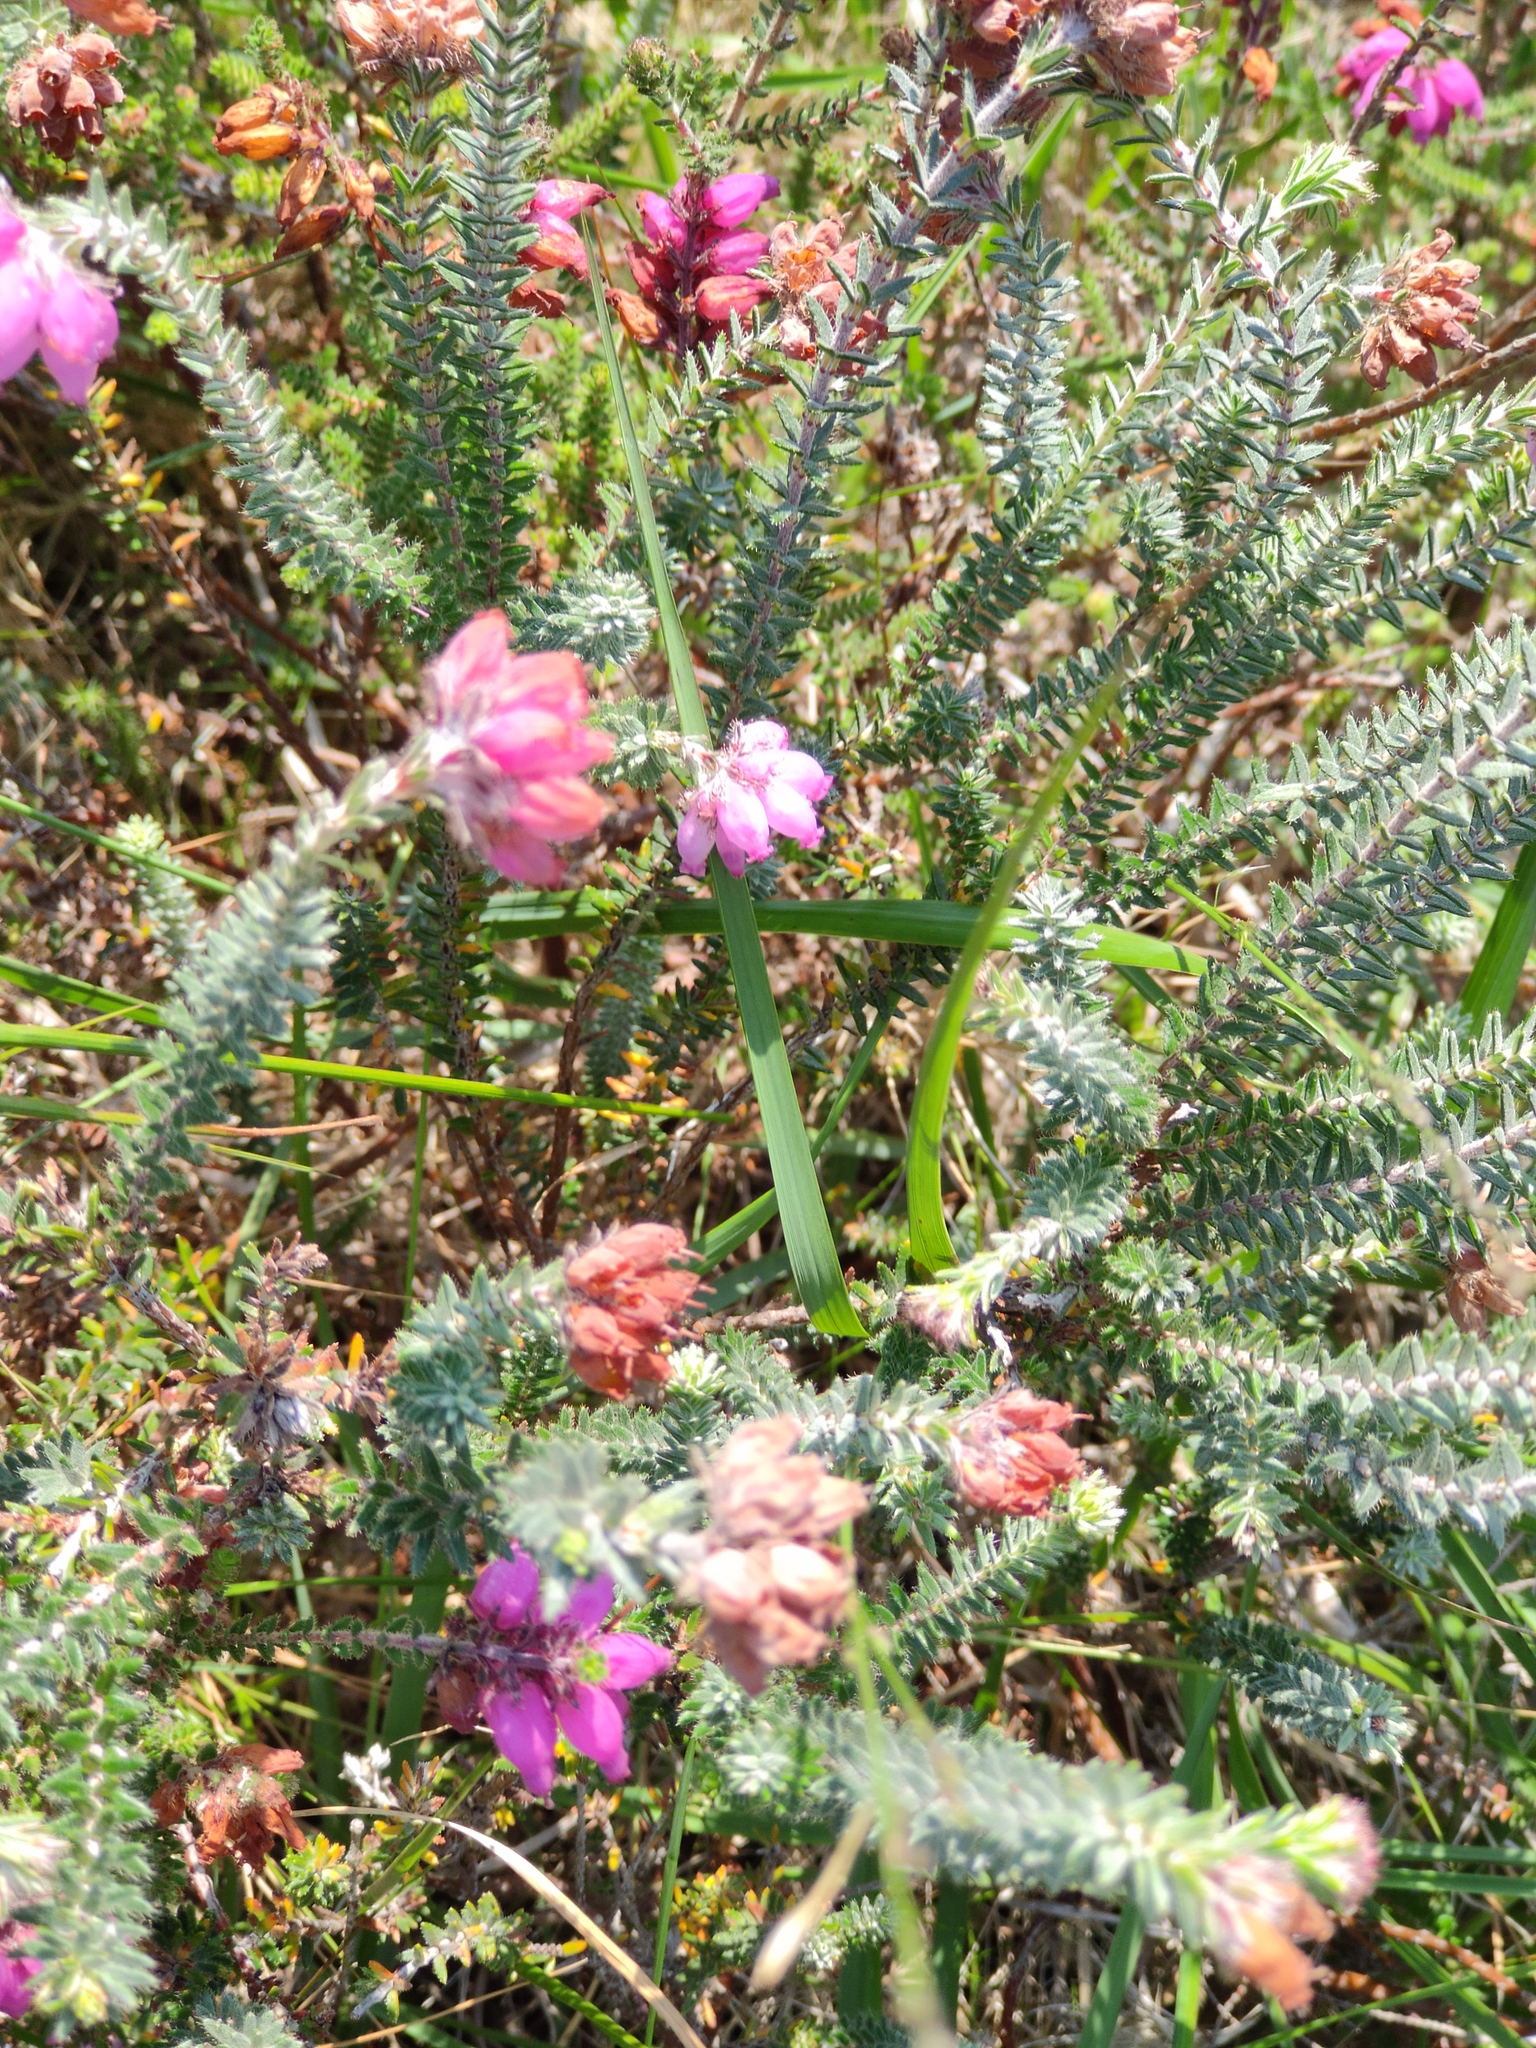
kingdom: Plantae
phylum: Tracheophyta
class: Magnoliopsida
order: Ericales
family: Ericaceae
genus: Erica
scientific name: Erica tetralix
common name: Cross-leaved heath
